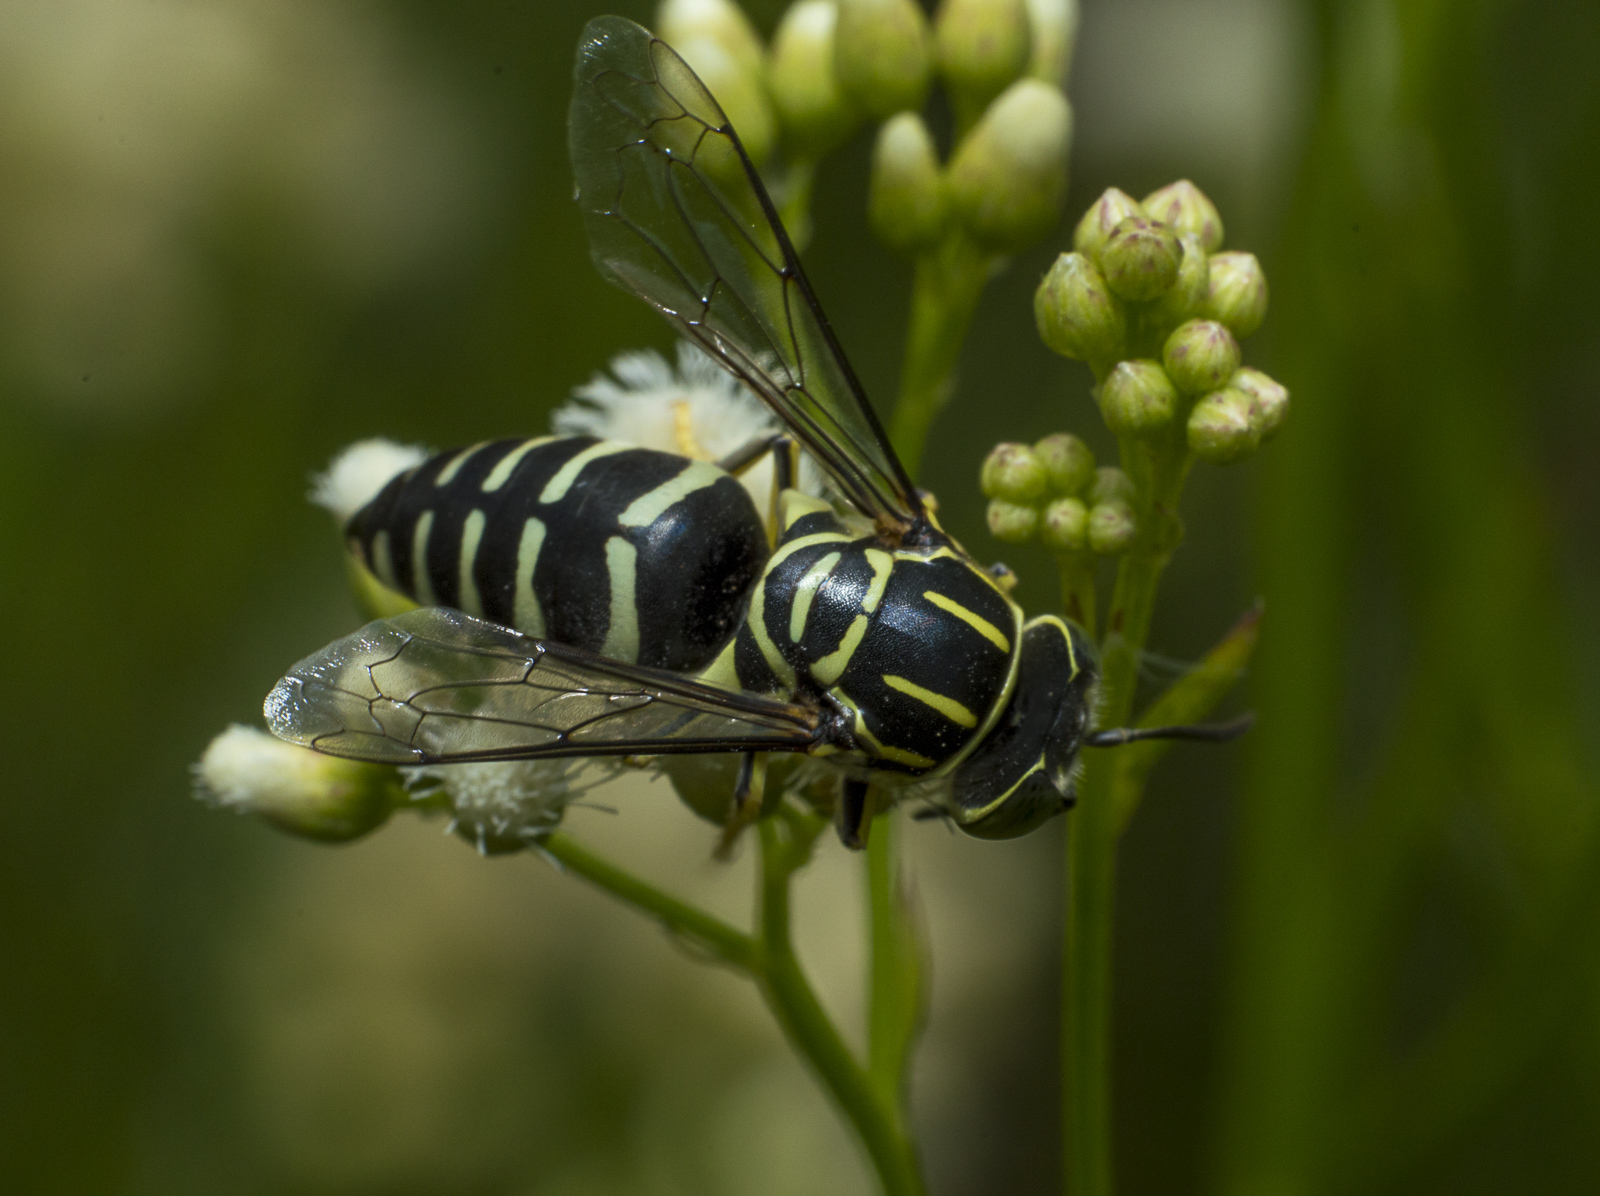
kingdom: Animalia
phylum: Arthropoda
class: Insecta
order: Hymenoptera
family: Crabronidae
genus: Bicyrtes
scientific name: Bicyrtes variegatus
